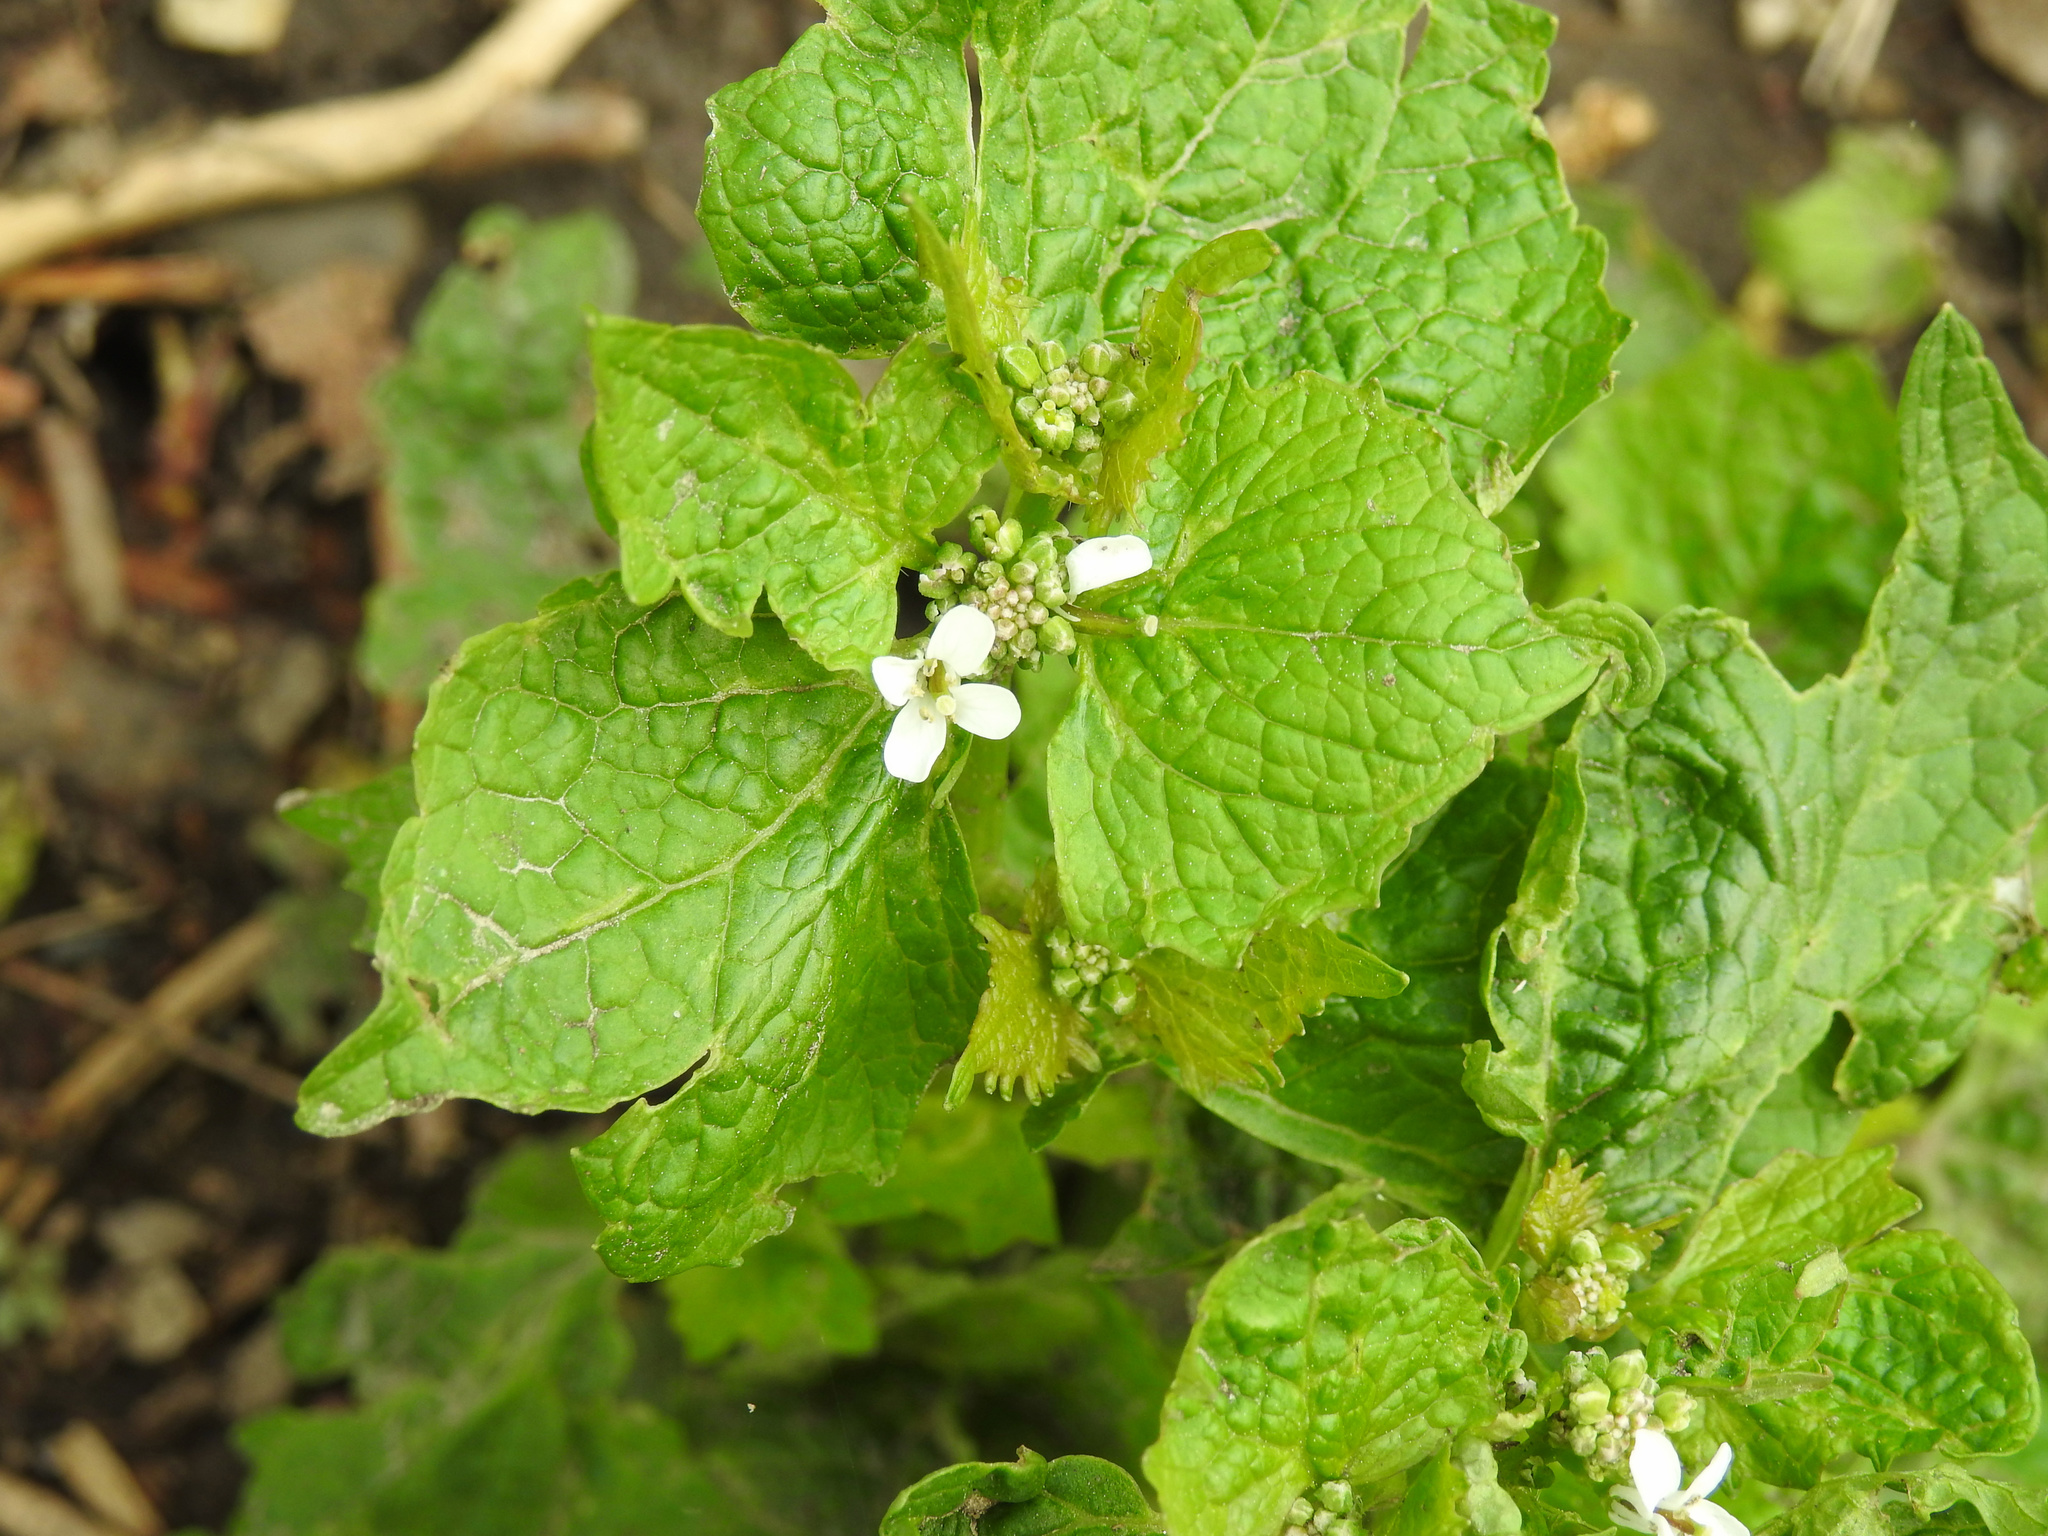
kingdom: Plantae
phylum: Tracheophyta
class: Magnoliopsida
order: Brassicales
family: Brassicaceae
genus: Alliaria
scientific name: Alliaria petiolata
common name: Garlic mustard
